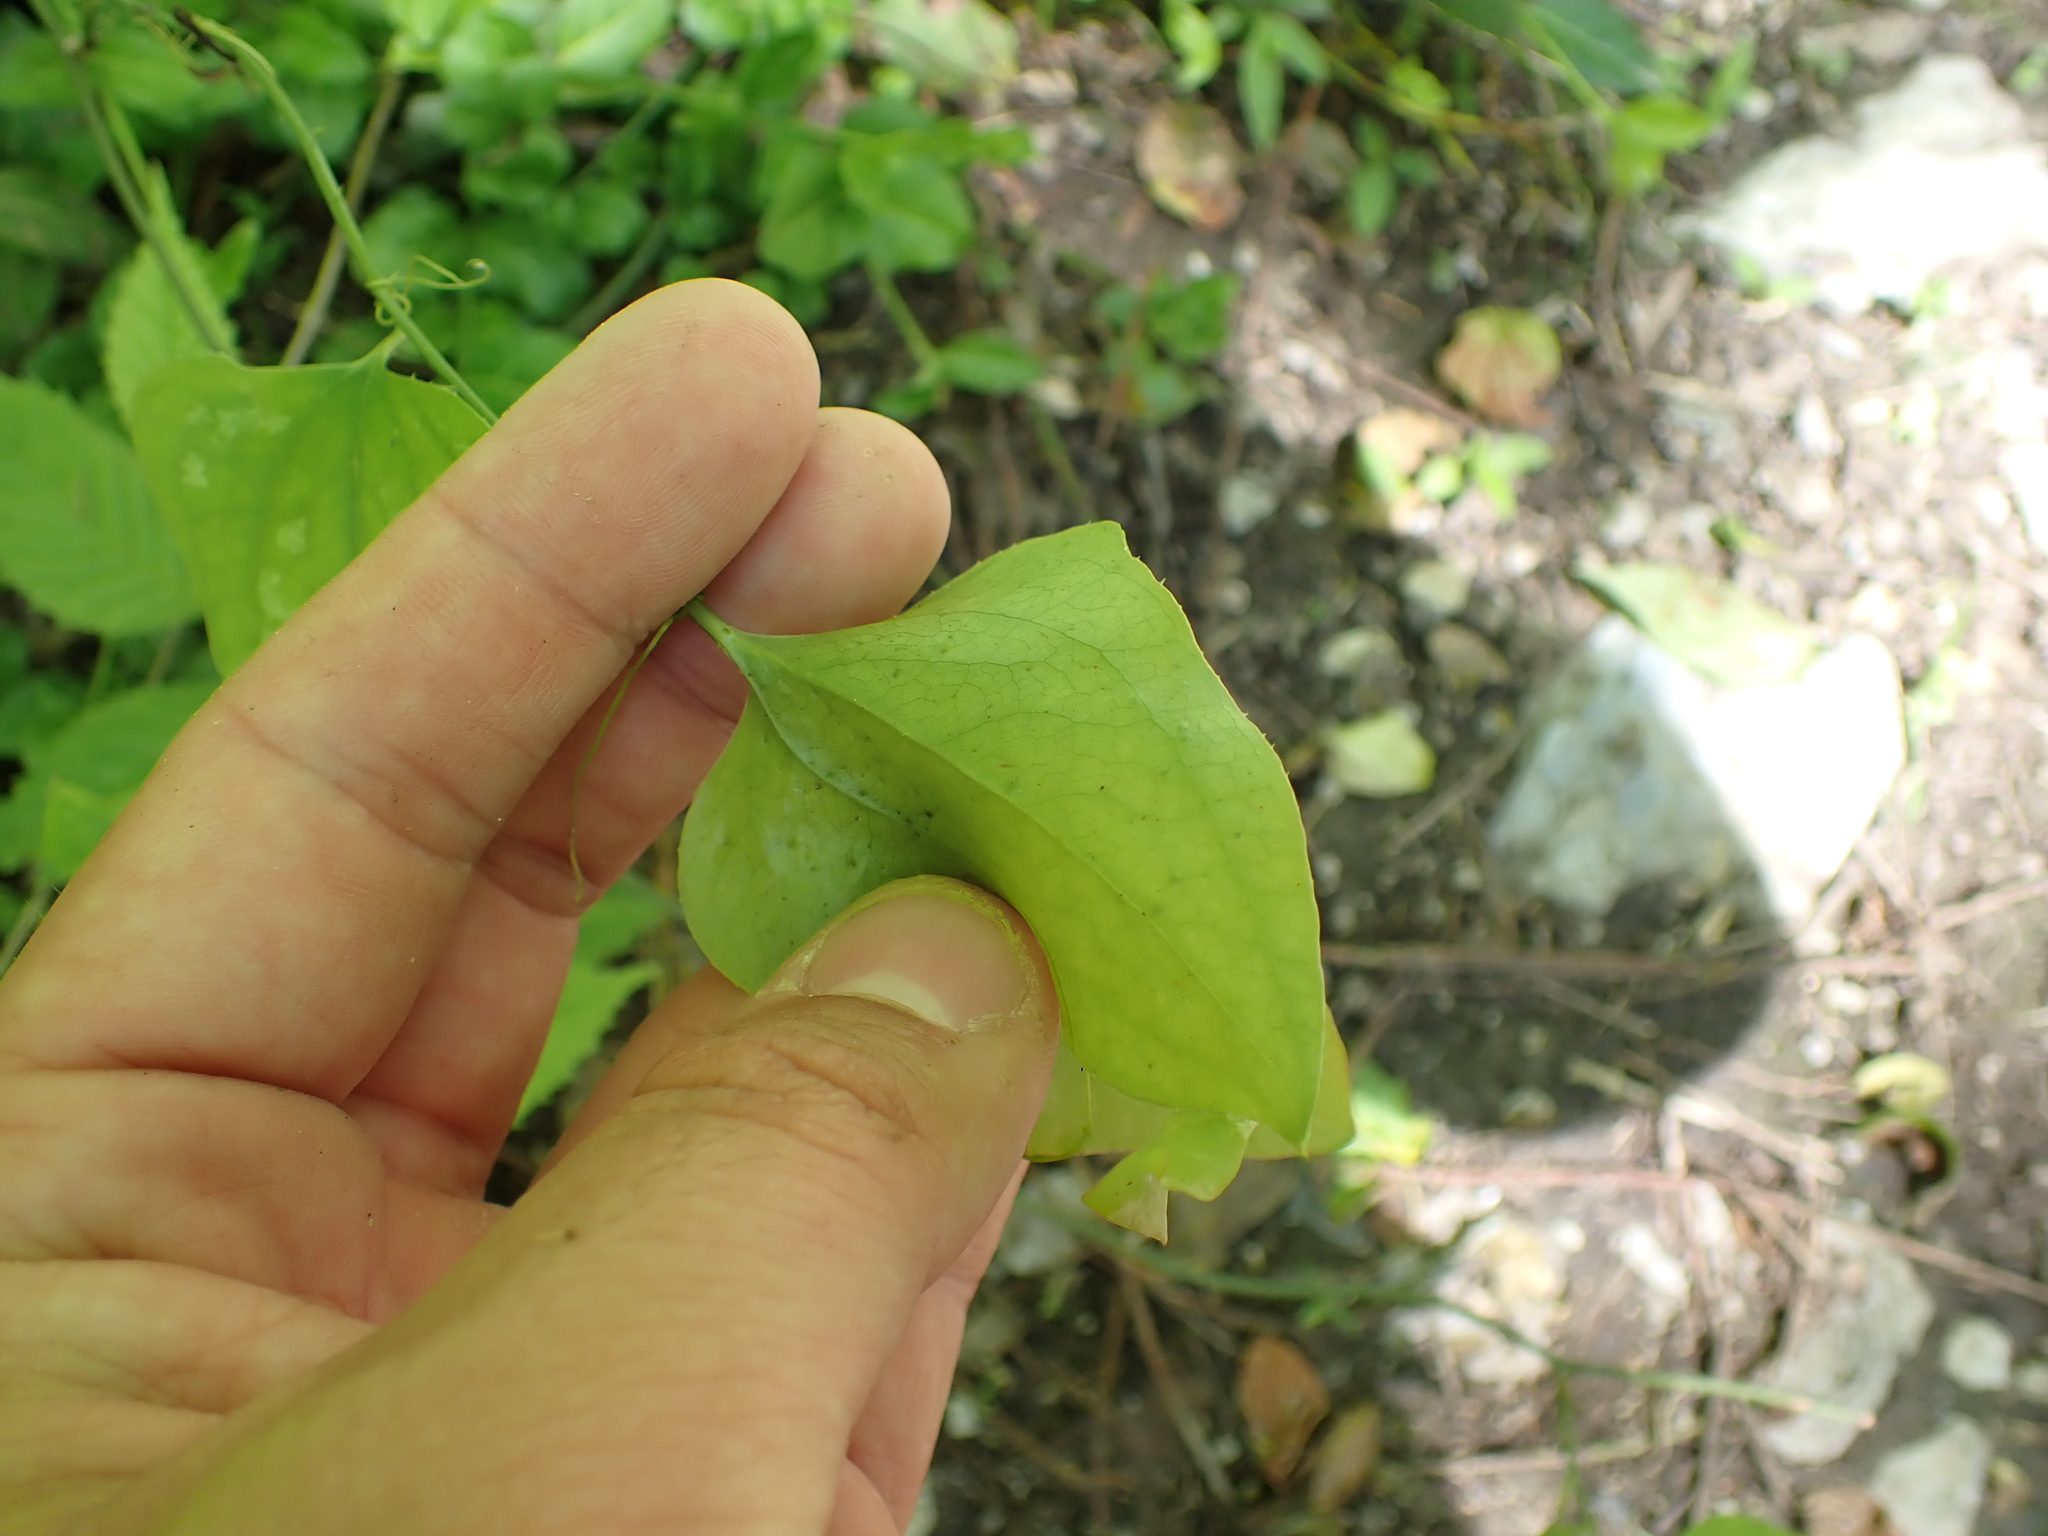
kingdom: Plantae
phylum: Tracheophyta
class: Liliopsida
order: Liliales
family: Smilacaceae
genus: Smilax
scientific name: Smilax bona-nox
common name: Catbrier
